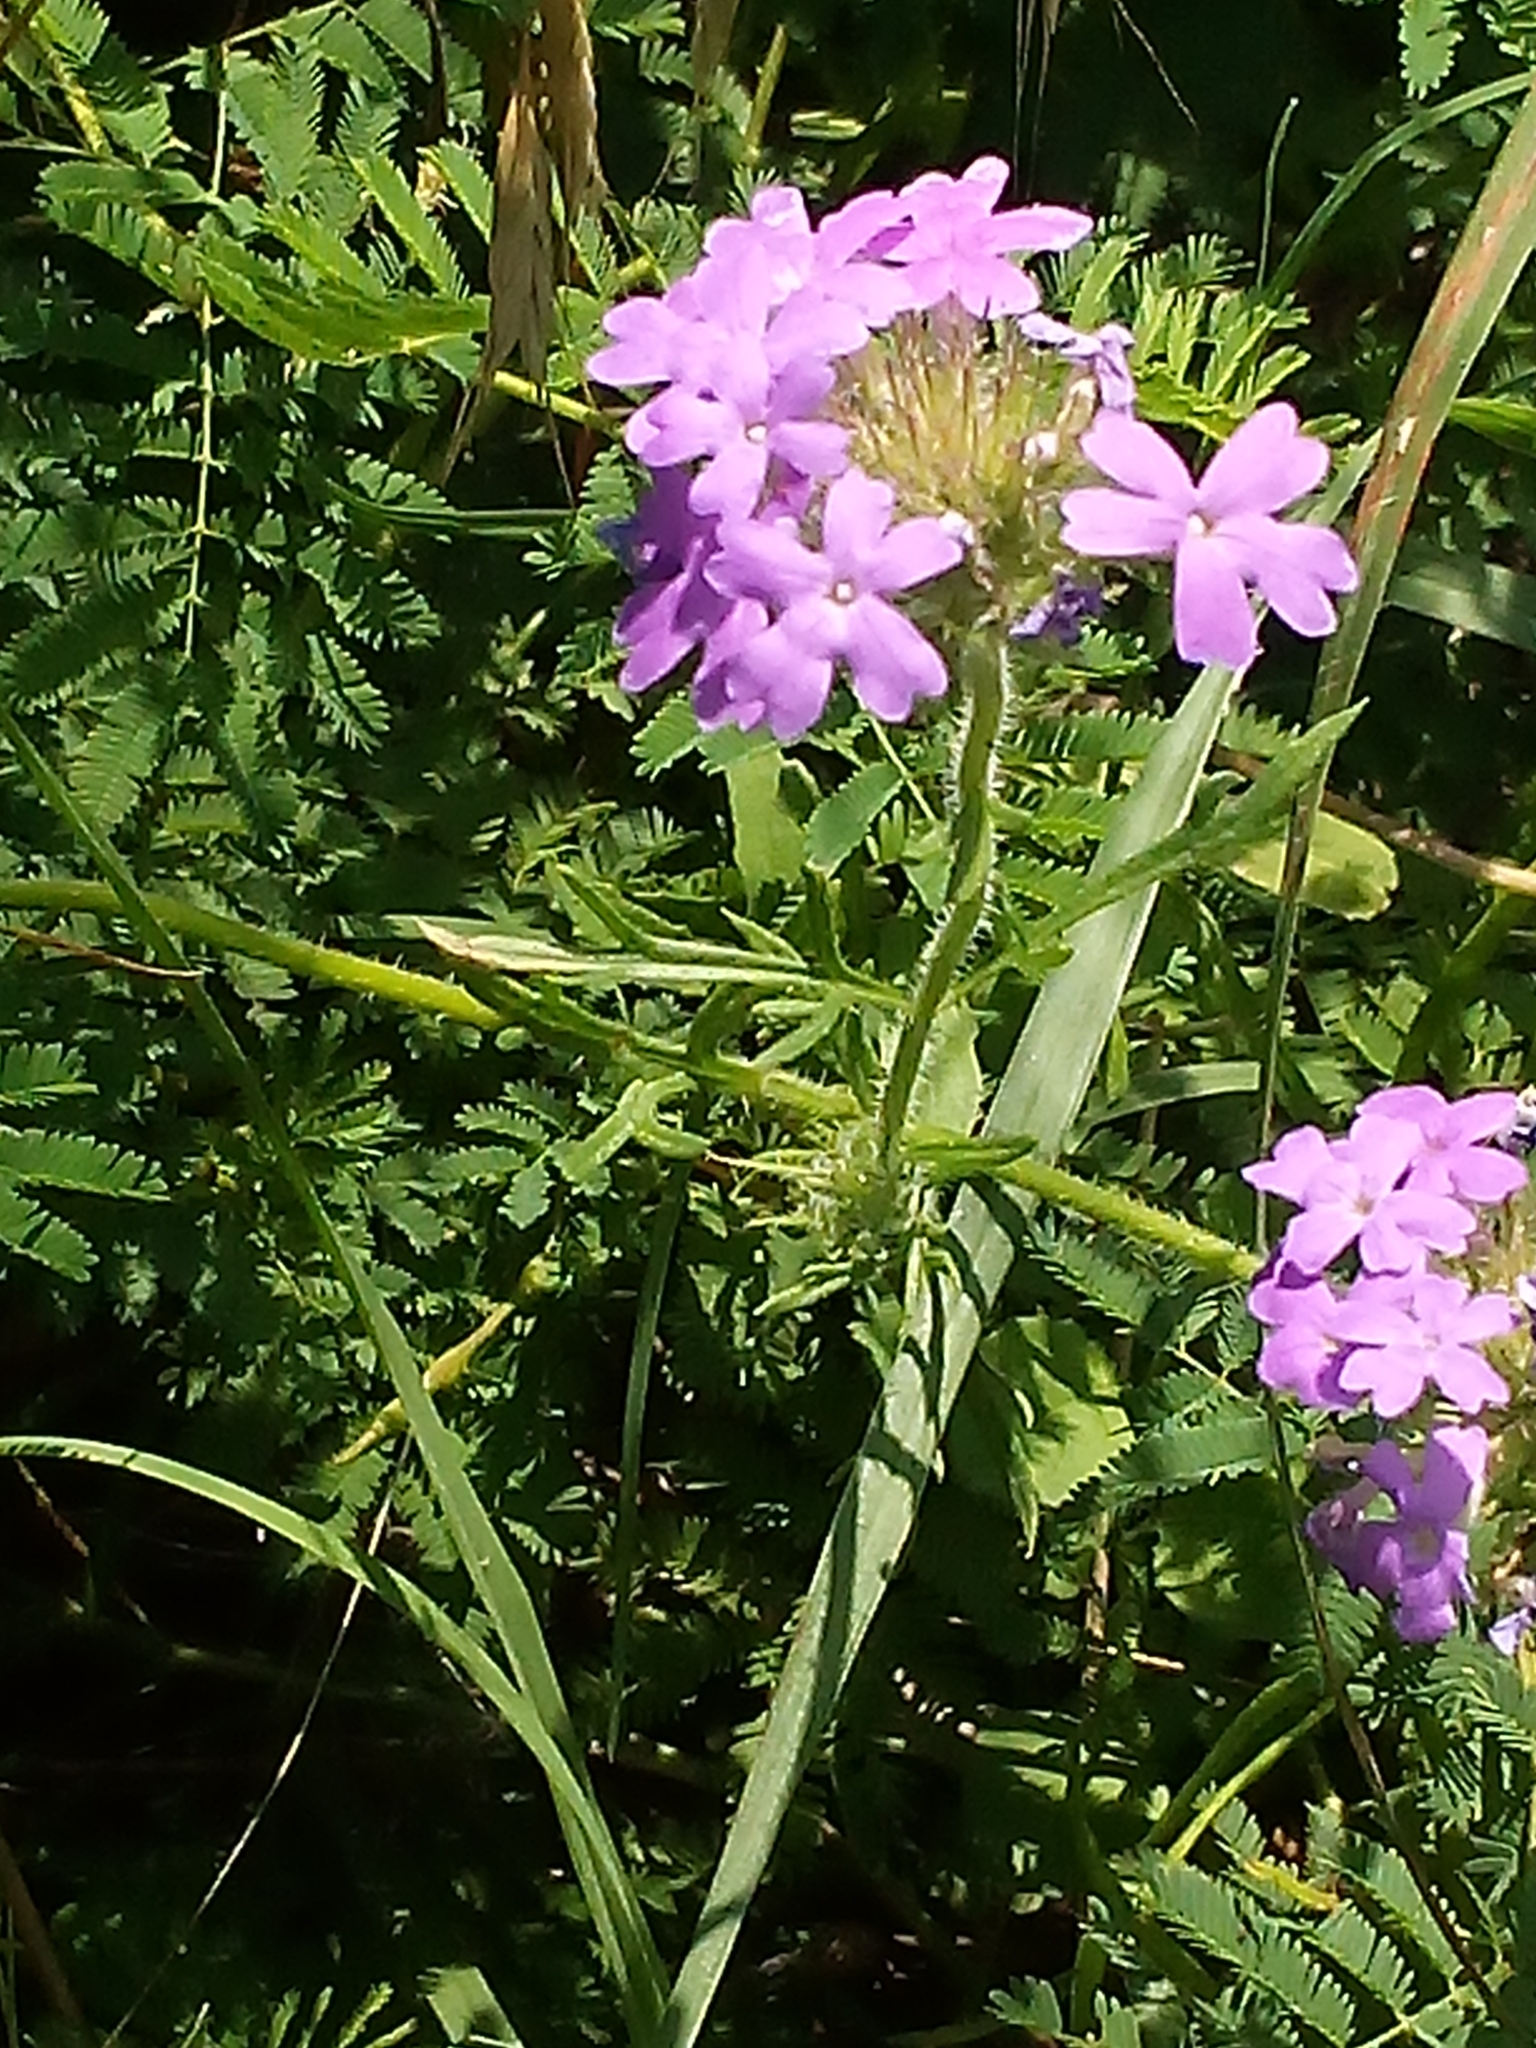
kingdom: Plantae
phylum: Tracheophyta
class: Magnoliopsida
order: Lamiales
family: Verbenaceae
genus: Verbena
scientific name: Verbena bipinnatifida
